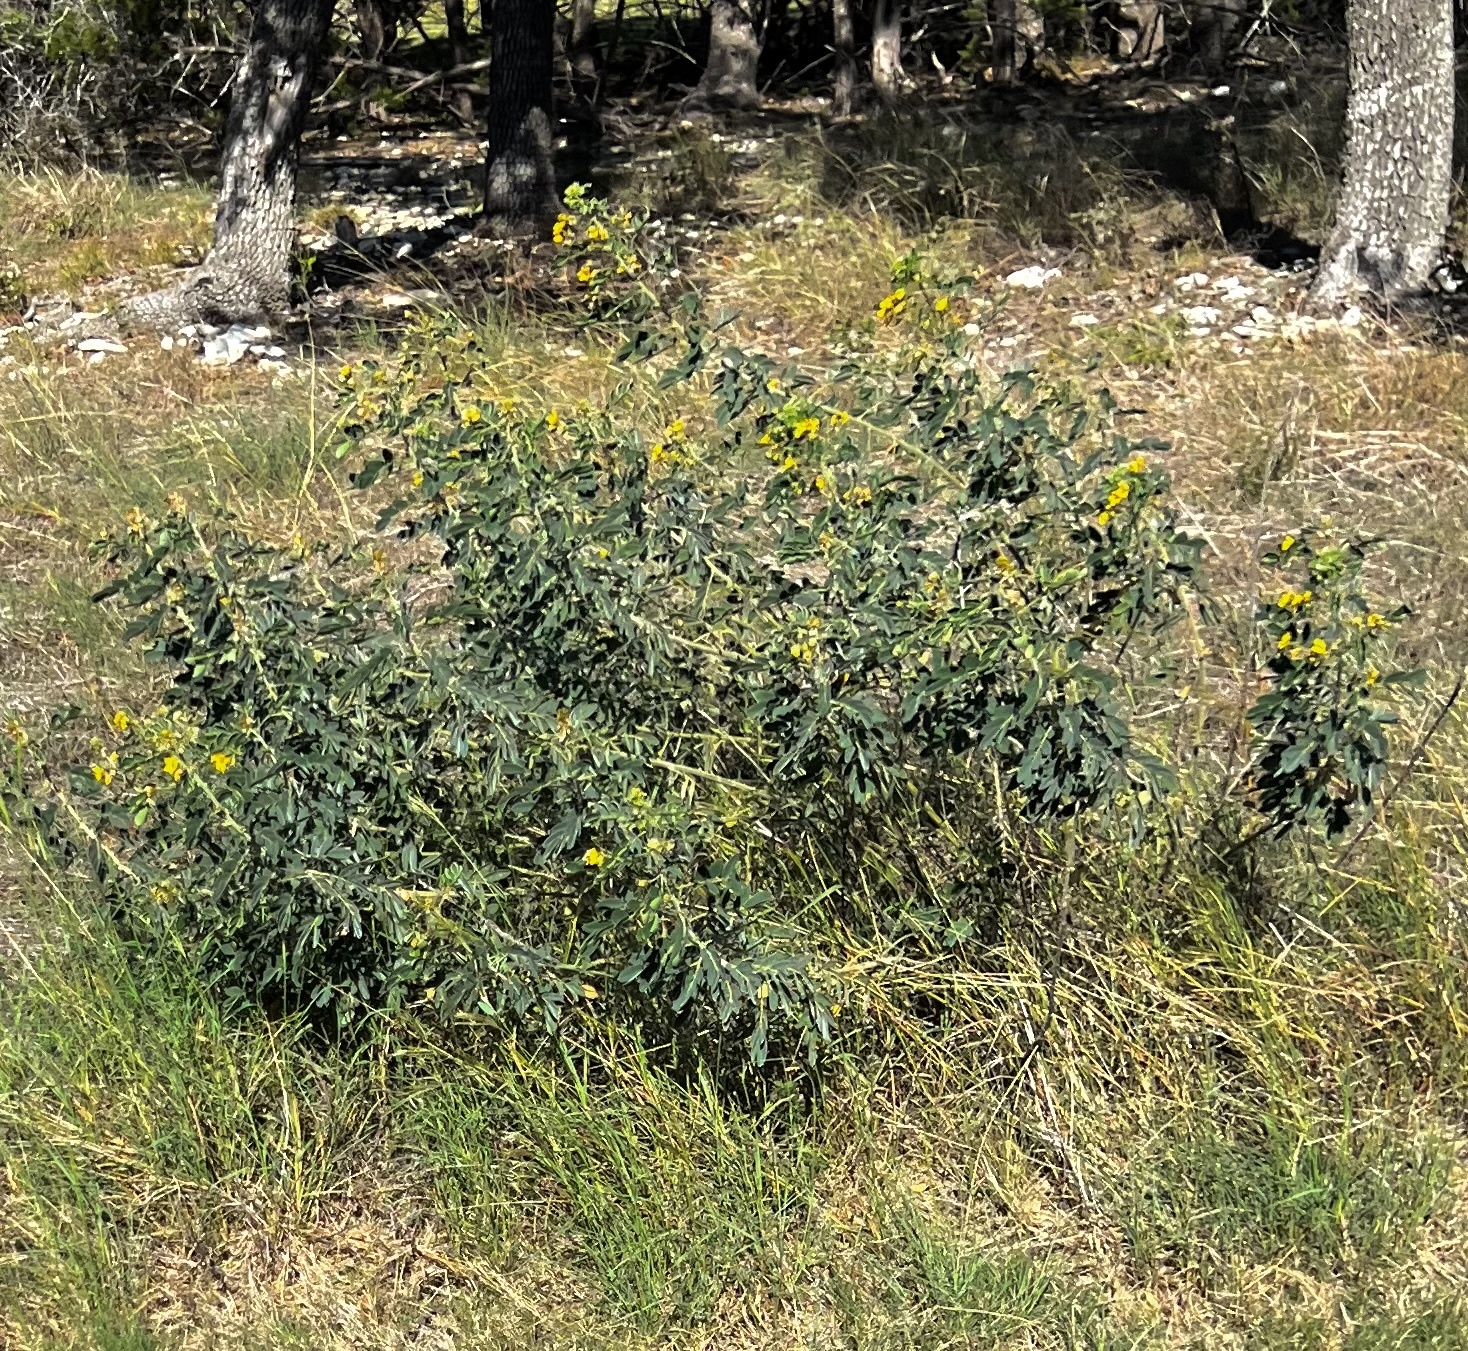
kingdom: Plantae
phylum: Tracheophyta
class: Magnoliopsida
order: Fabales
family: Fabaceae
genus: Senna
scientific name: Senna lindheimeriana
